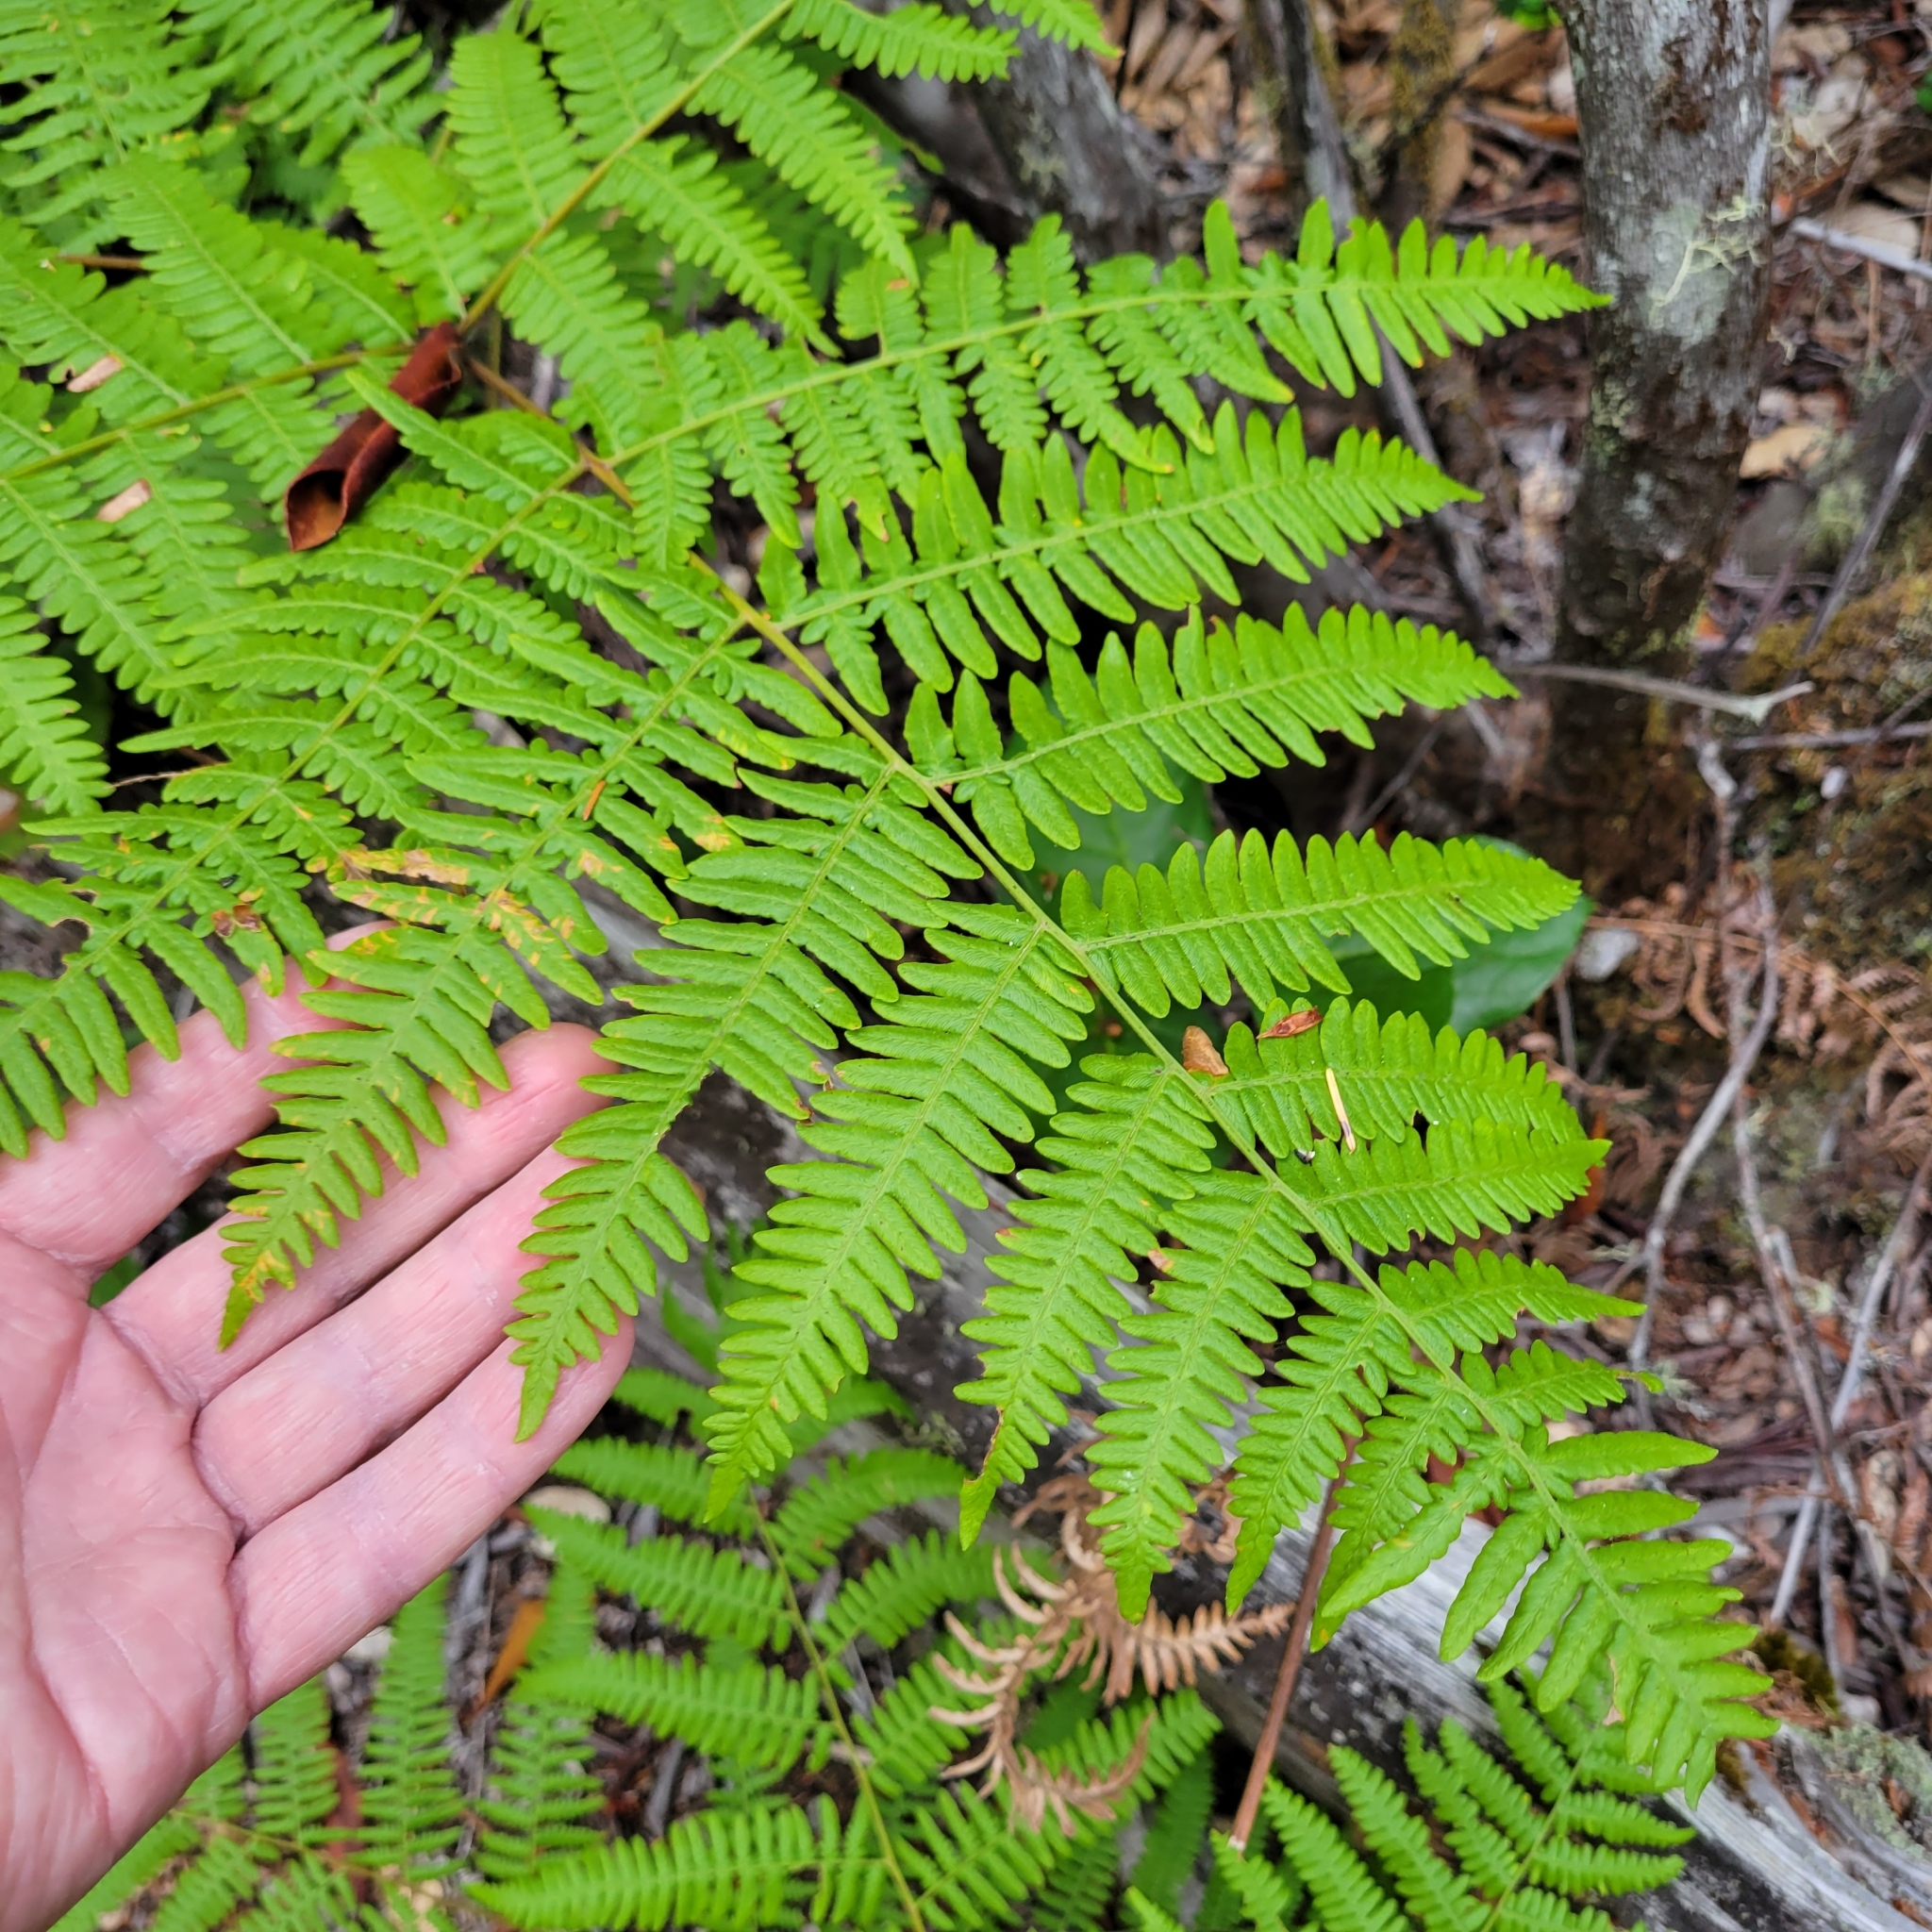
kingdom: Plantae
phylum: Tracheophyta
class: Polypodiopsida
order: Polypodiales
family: Dennstaedtiaceae
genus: Pteridium
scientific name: Pteridium aquilinum
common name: Bracken
